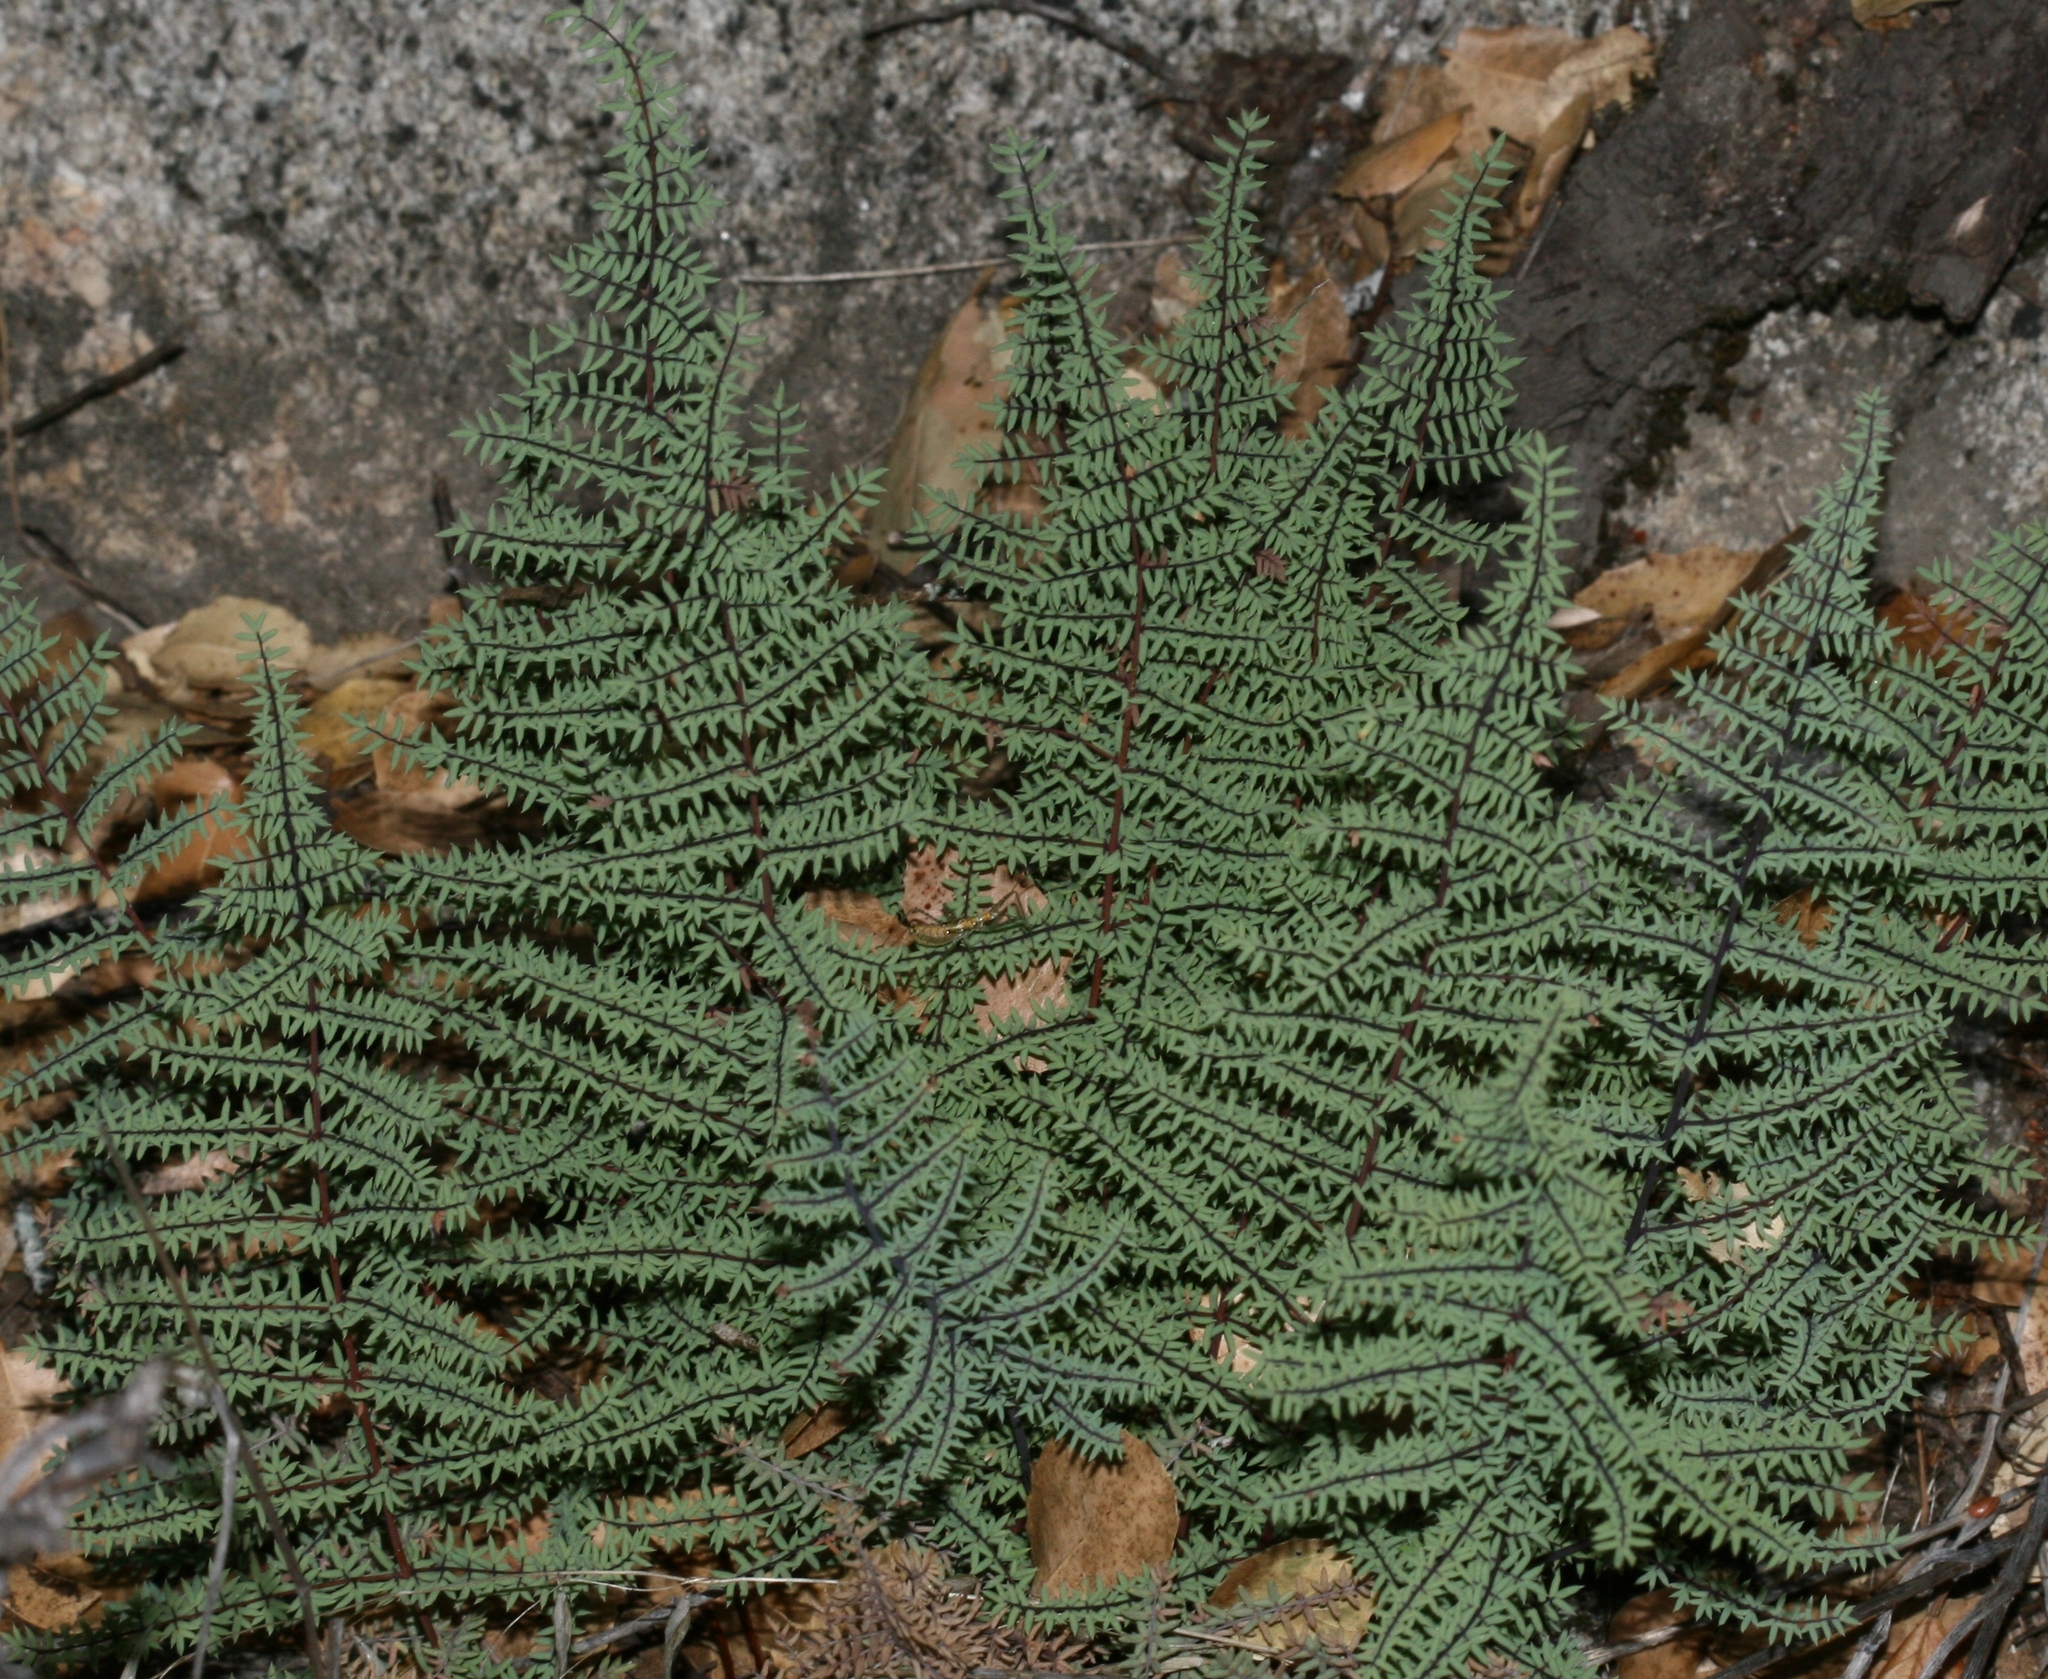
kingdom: Plantae
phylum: Tracheophyta
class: Polypodiopsida
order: Polypodiales
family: Pteridaceae
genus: Pellaea
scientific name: Pellaea mucronata
